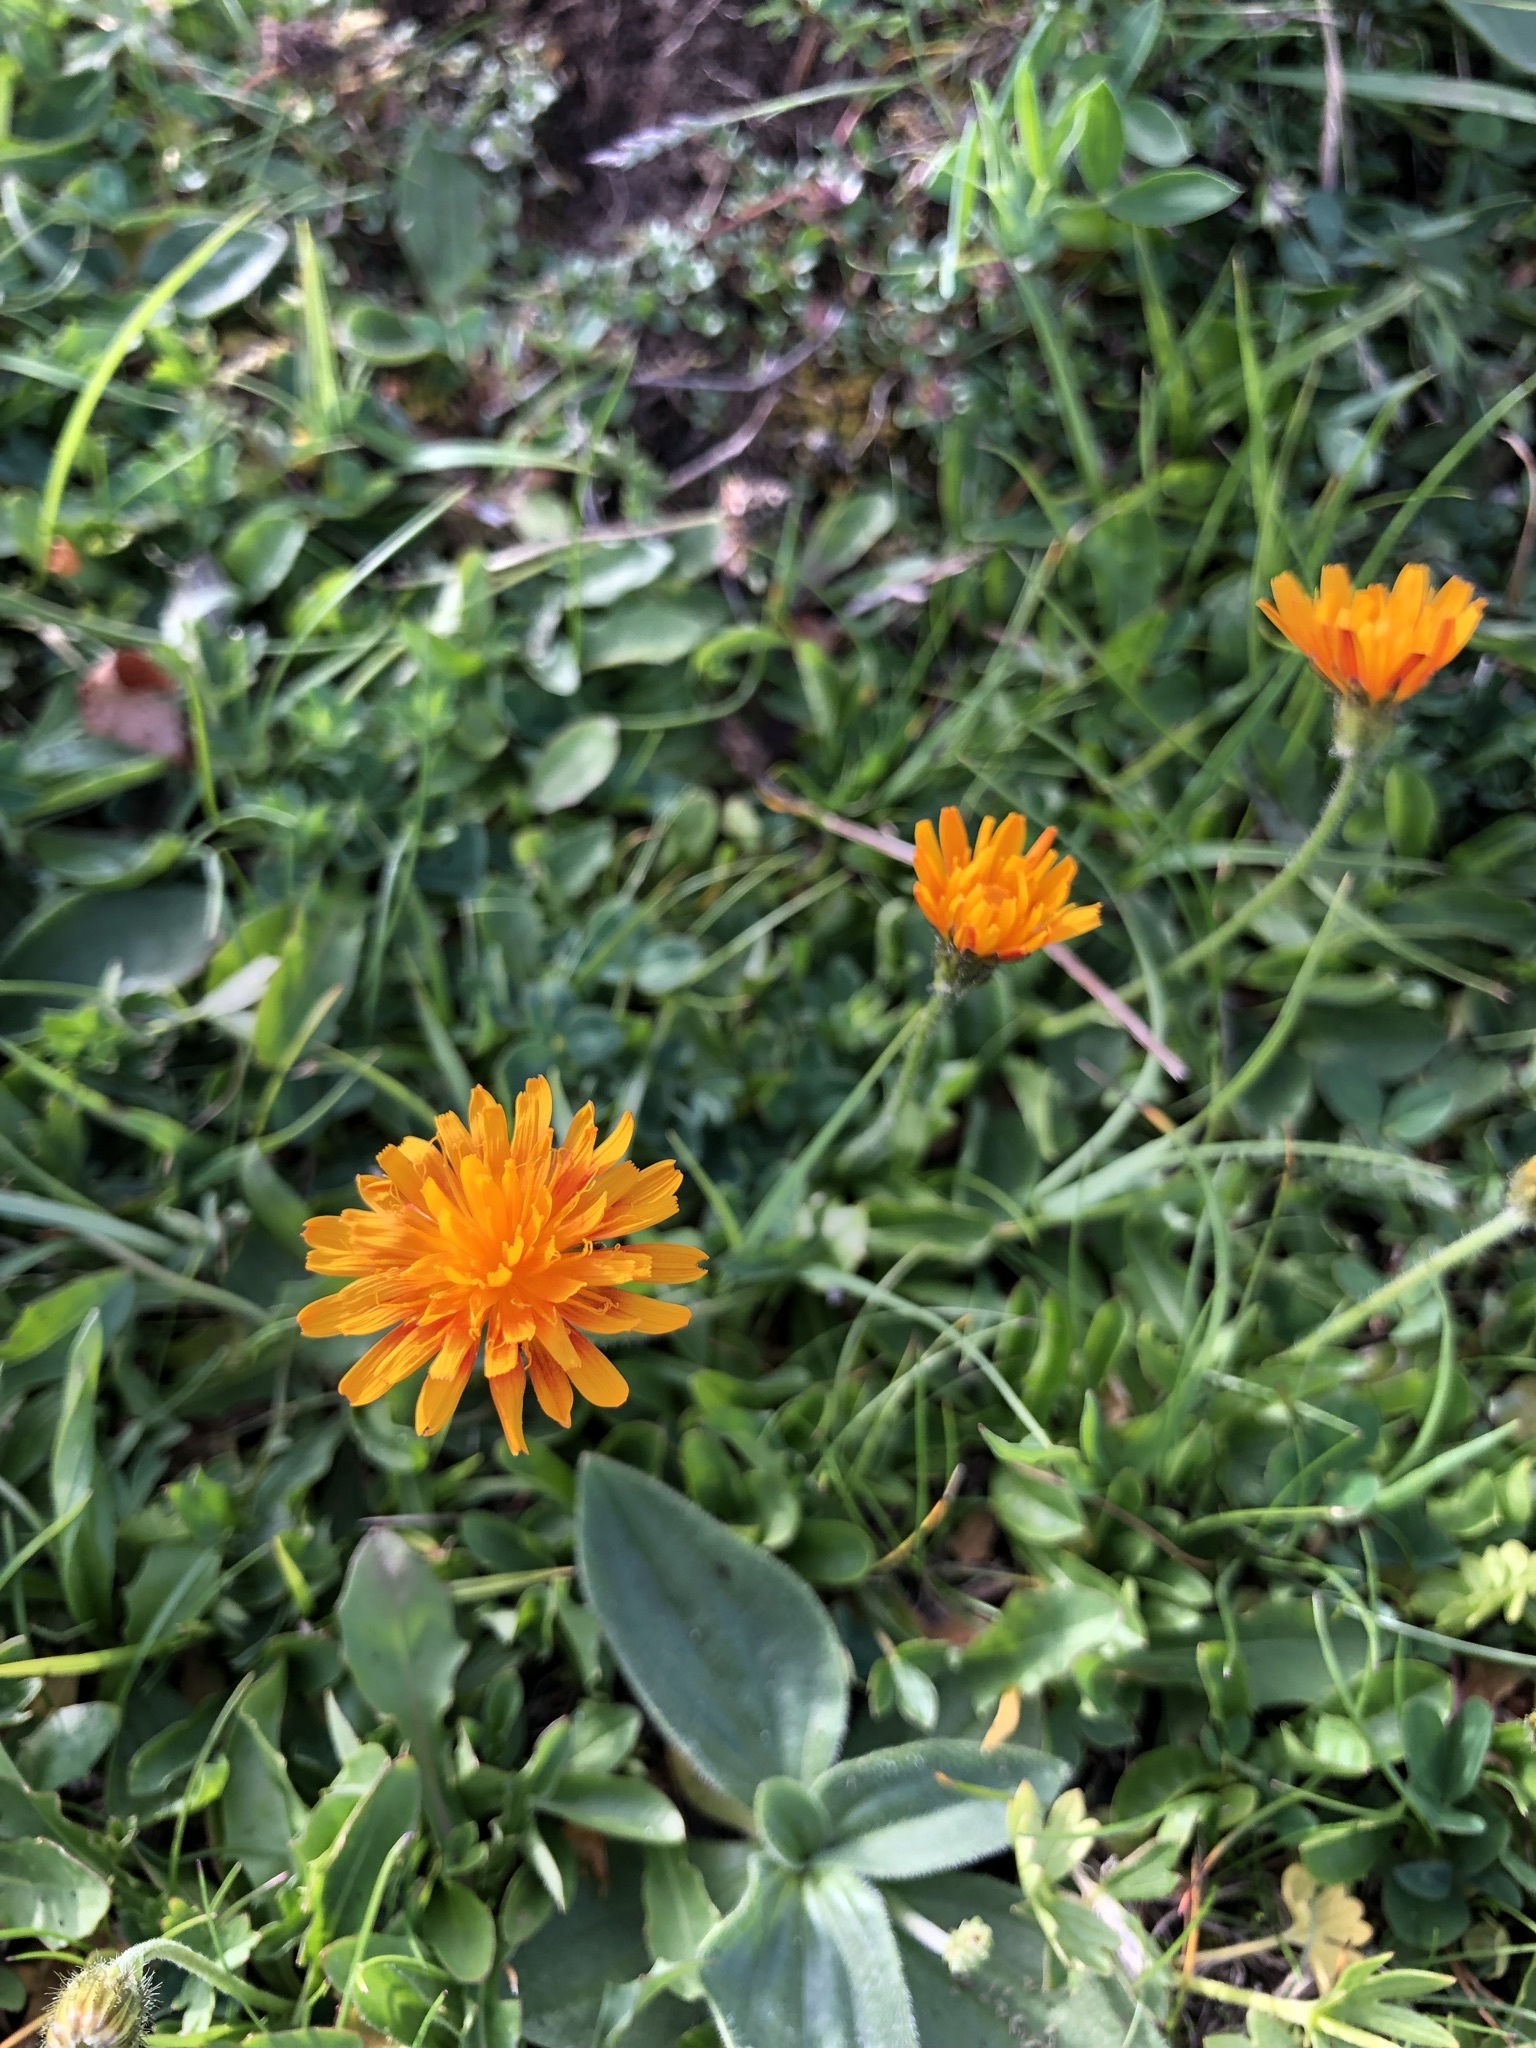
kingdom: Plantae
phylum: Tracheophyta
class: Magnoliopsida
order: Asterales
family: Asteraceae
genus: Crepis
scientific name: Crepis aurea
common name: Golden hawk's-beard
